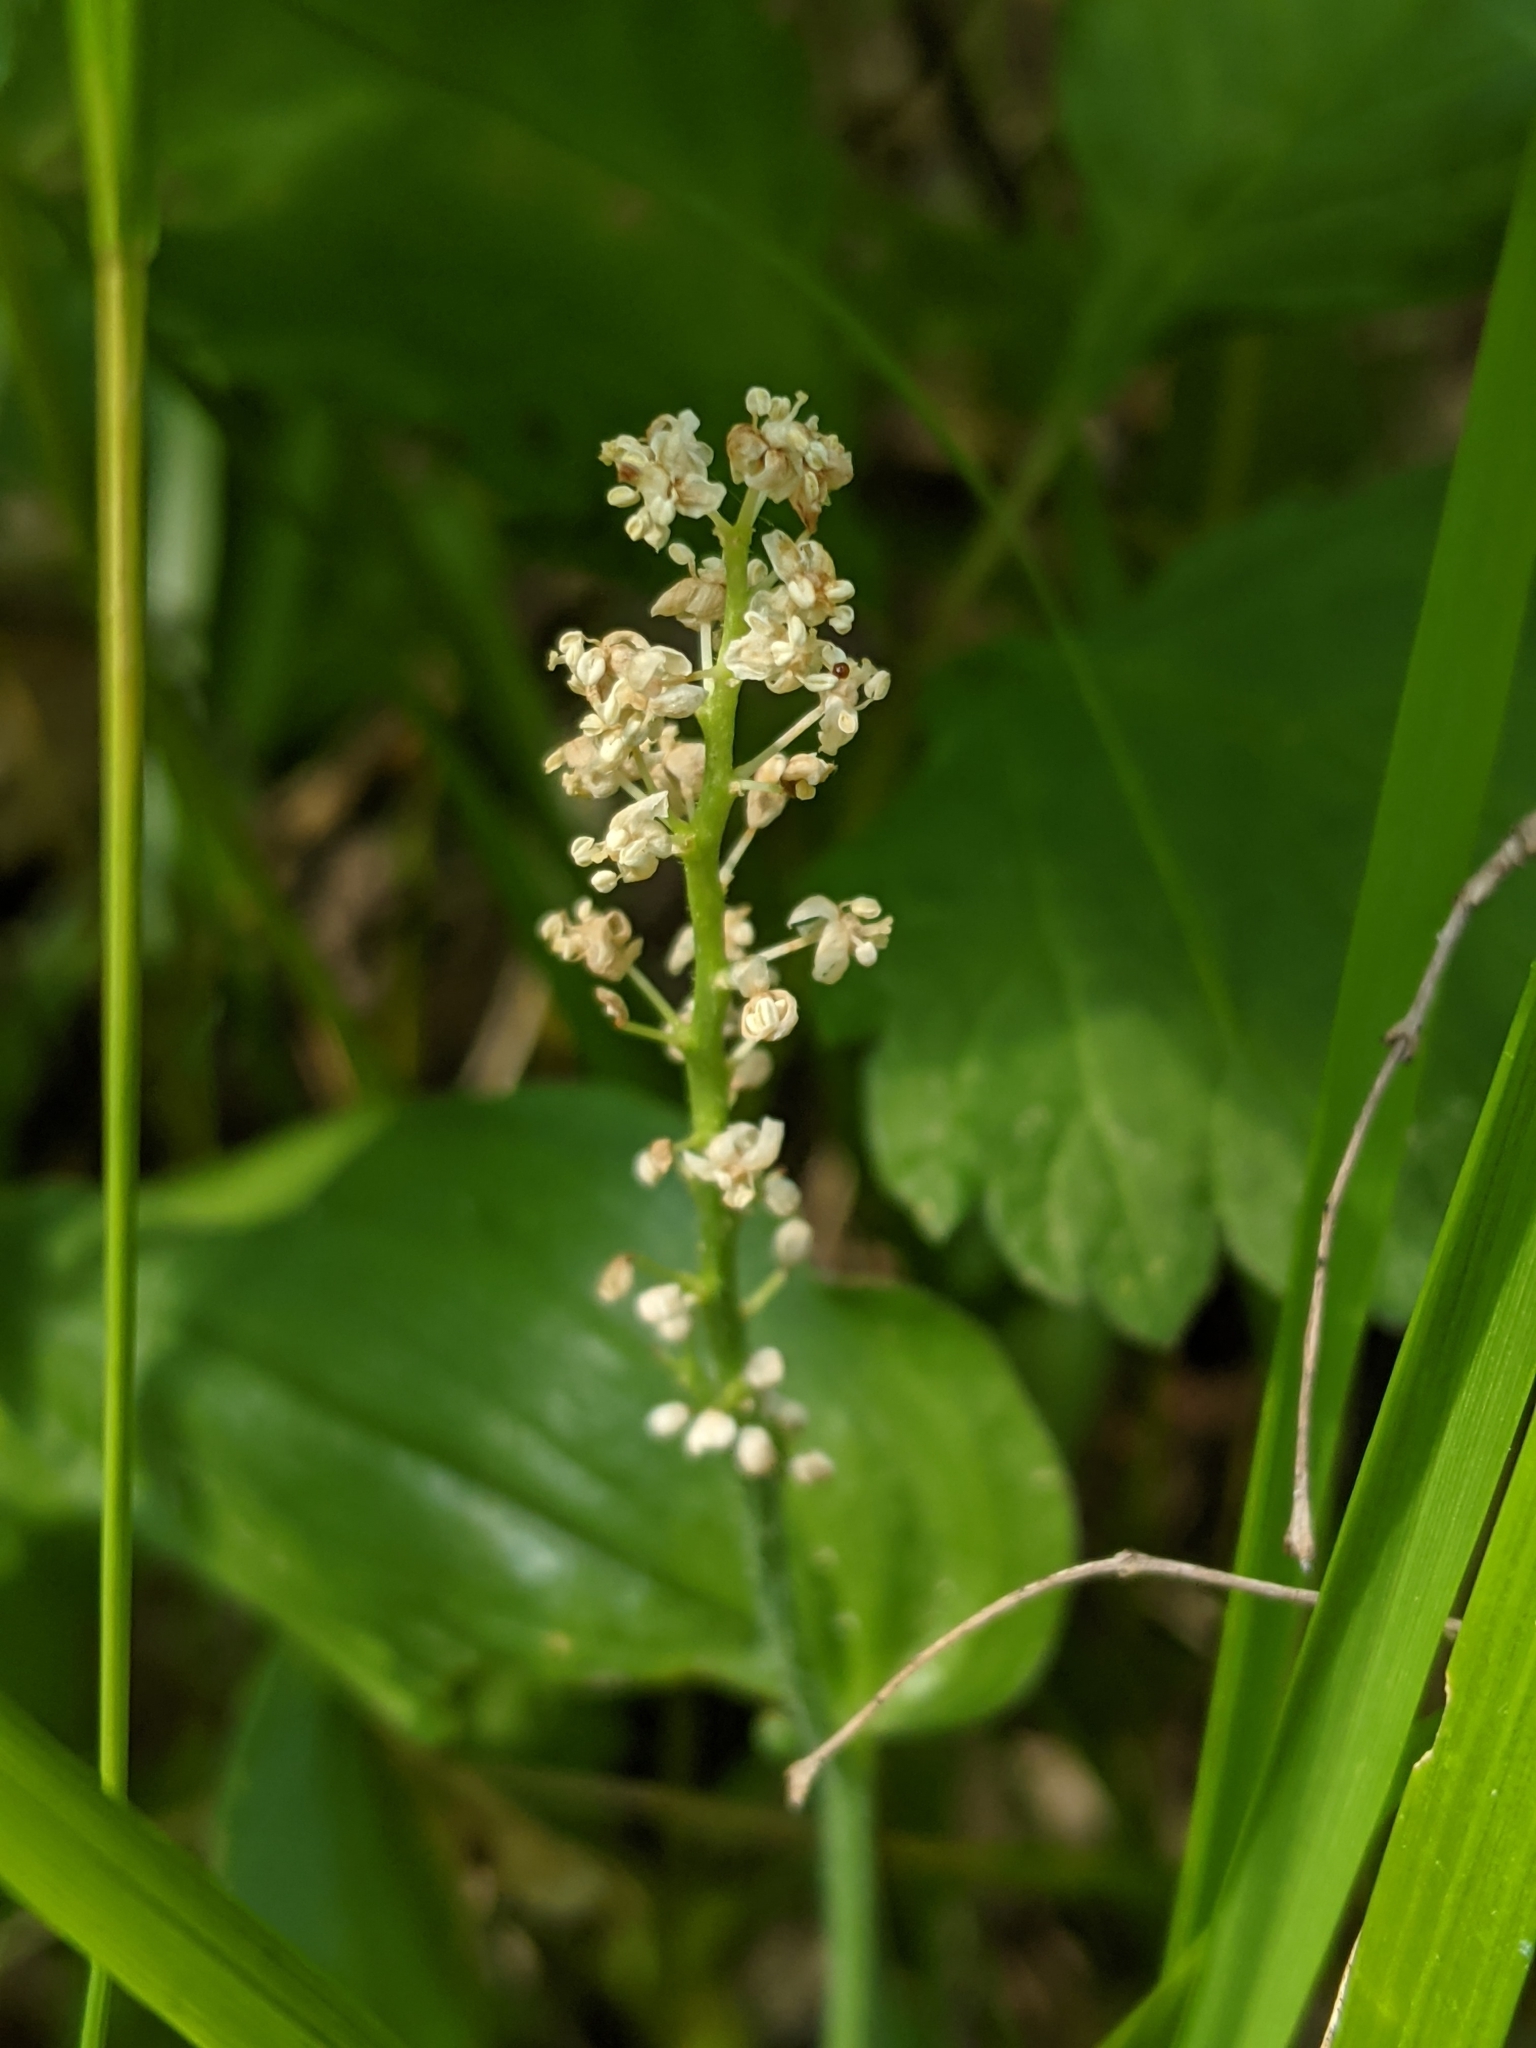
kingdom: Plantae
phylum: Tracheophyta
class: Liliopsida
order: Asparagales
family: Asparagaceae
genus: Maianthemum
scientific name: Maianthemum canadense
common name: False lily-of-the-valley
